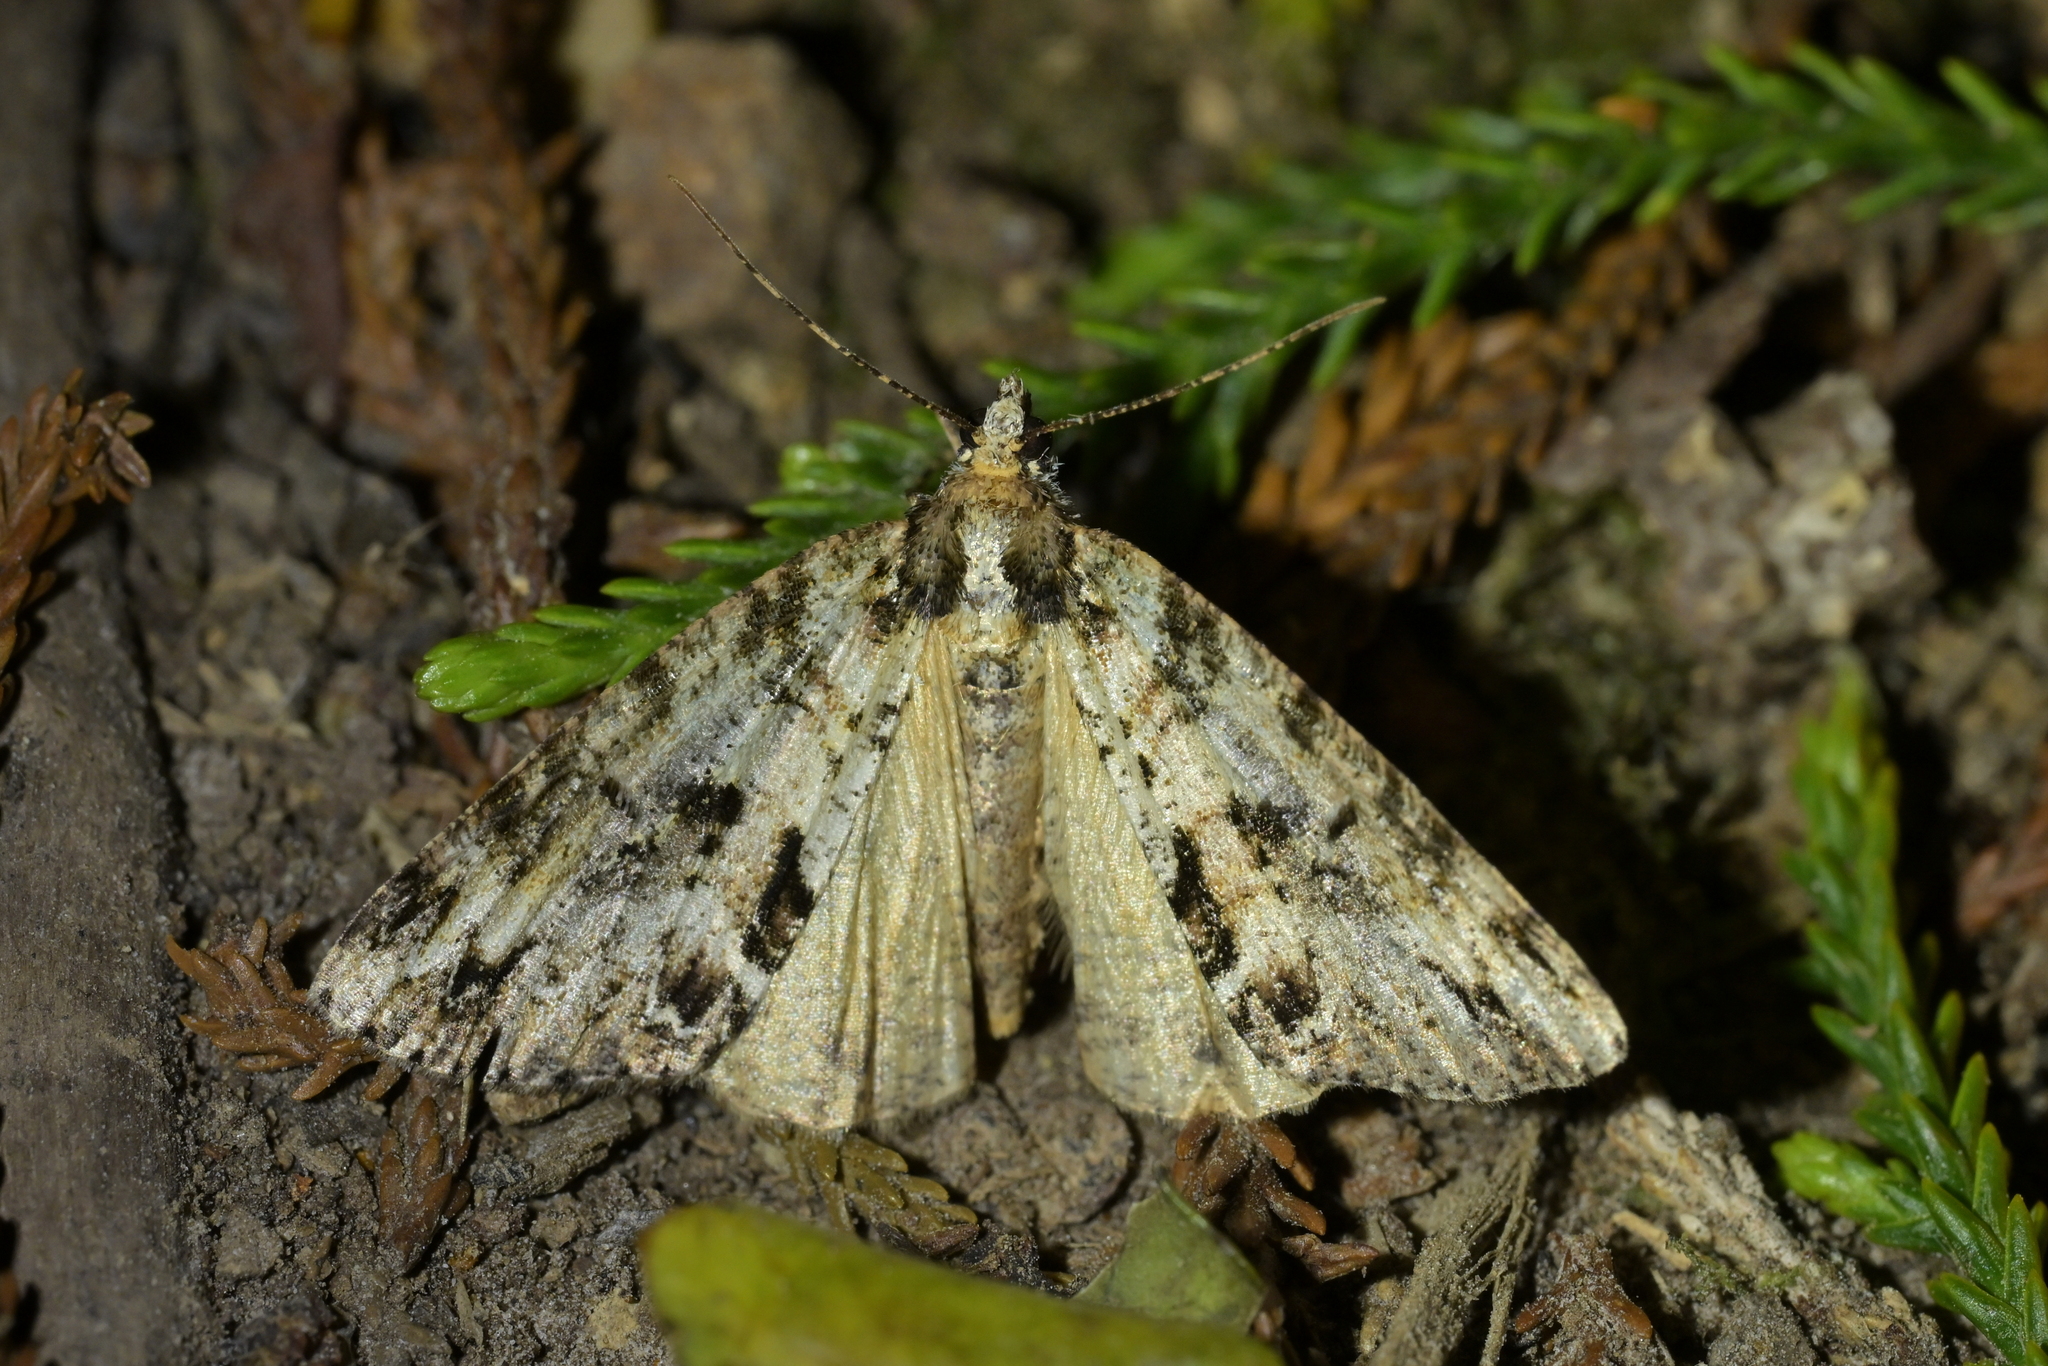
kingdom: Animalia
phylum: Arthropoda
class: Insecta
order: Lepidoptera
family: Geometridae
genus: Pseudocoremia
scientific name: Pseudocoremia suavis
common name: Common forest looper
